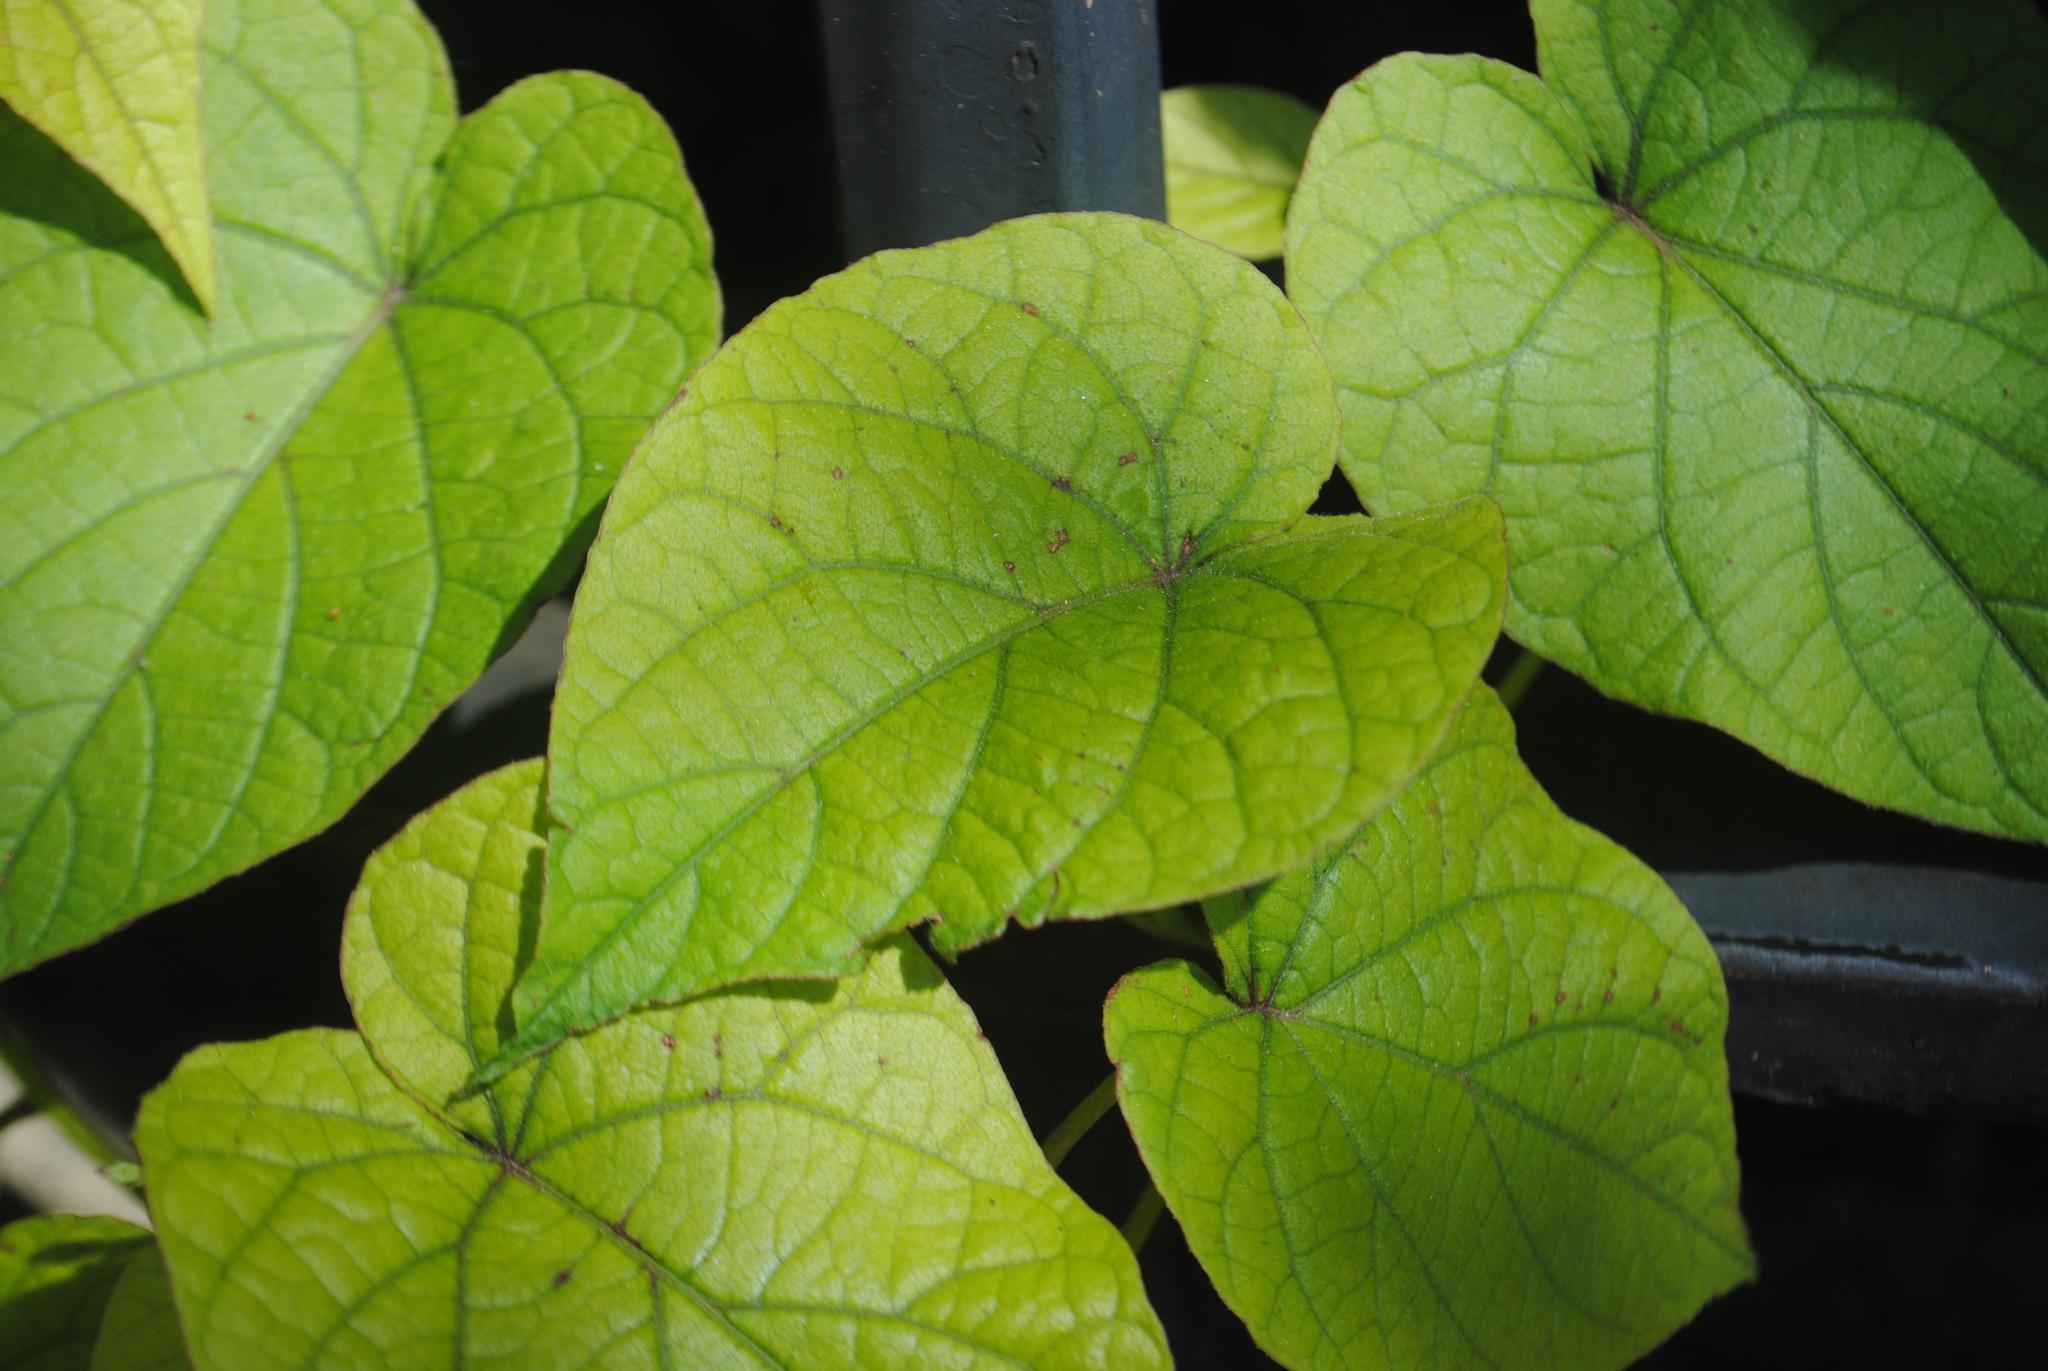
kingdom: Plantae
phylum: Tracheophyta
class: Magnoliopsida
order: Solanales
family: Convolvulaceae
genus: Ipomoea
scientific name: Ipomoea pandurata
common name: Man-of-the-earth
